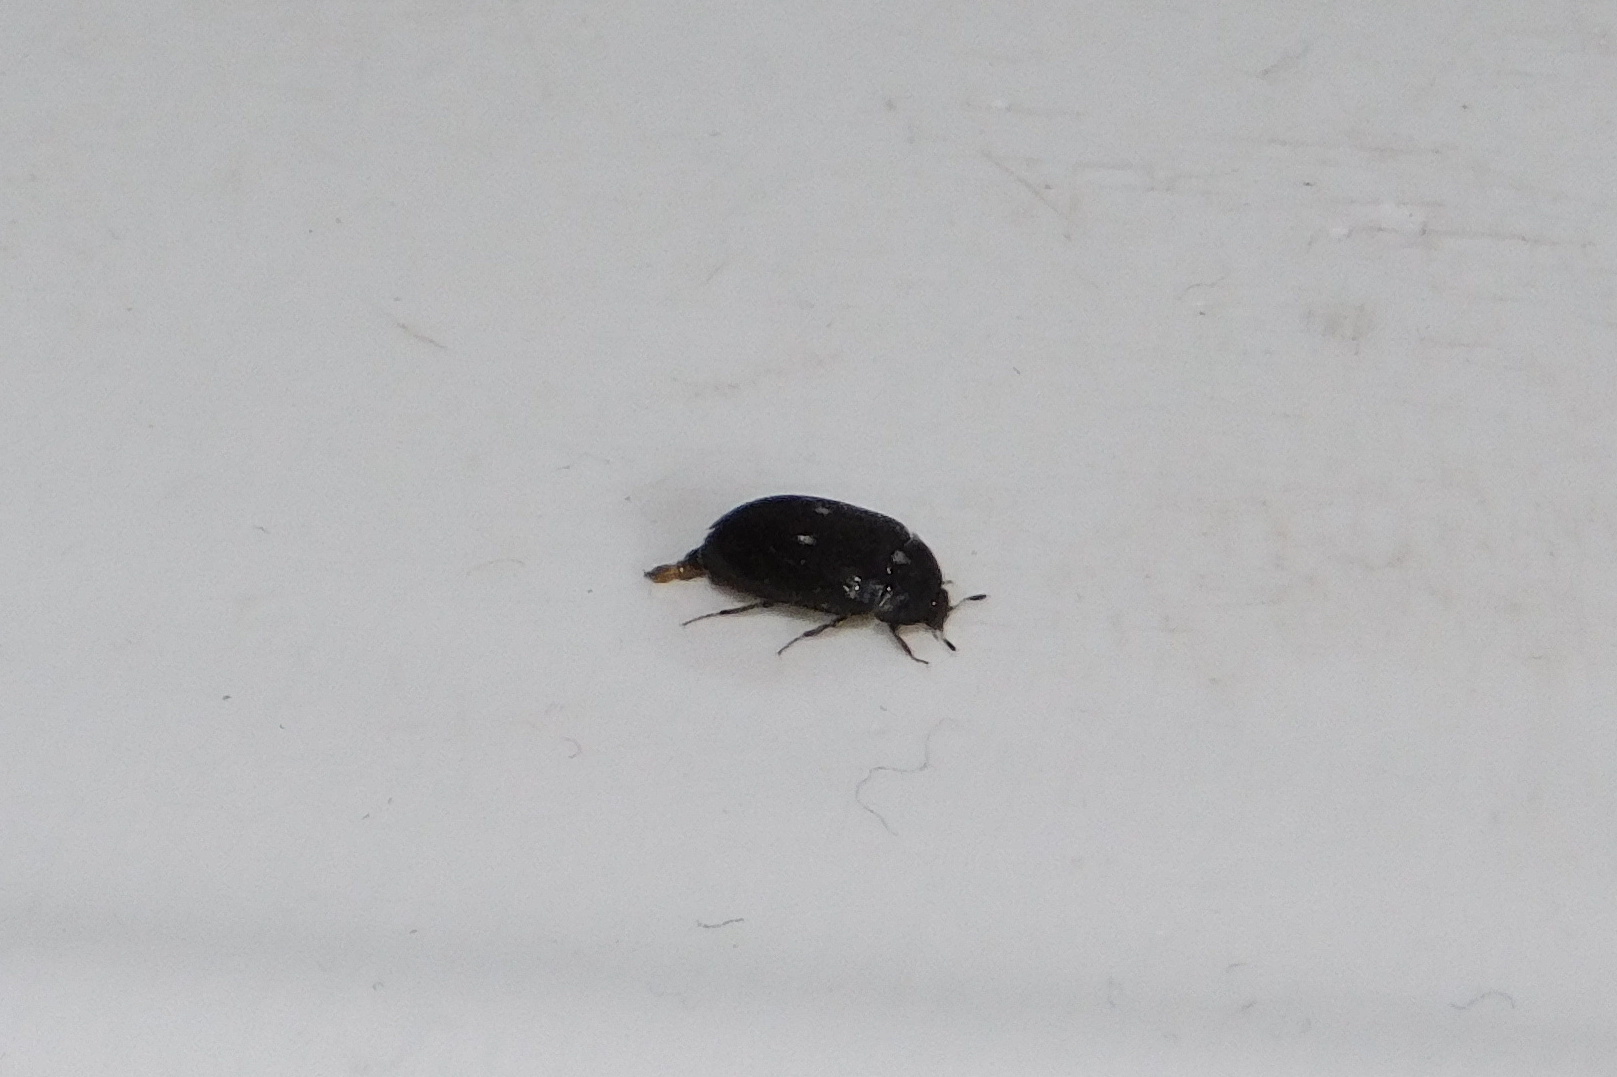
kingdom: Animalia
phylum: Arthropoda
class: Insecta
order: Coleoptera
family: Dermestidae
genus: Attagenus
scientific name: Attagenus pellio
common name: Two-spotted carpet beetle
